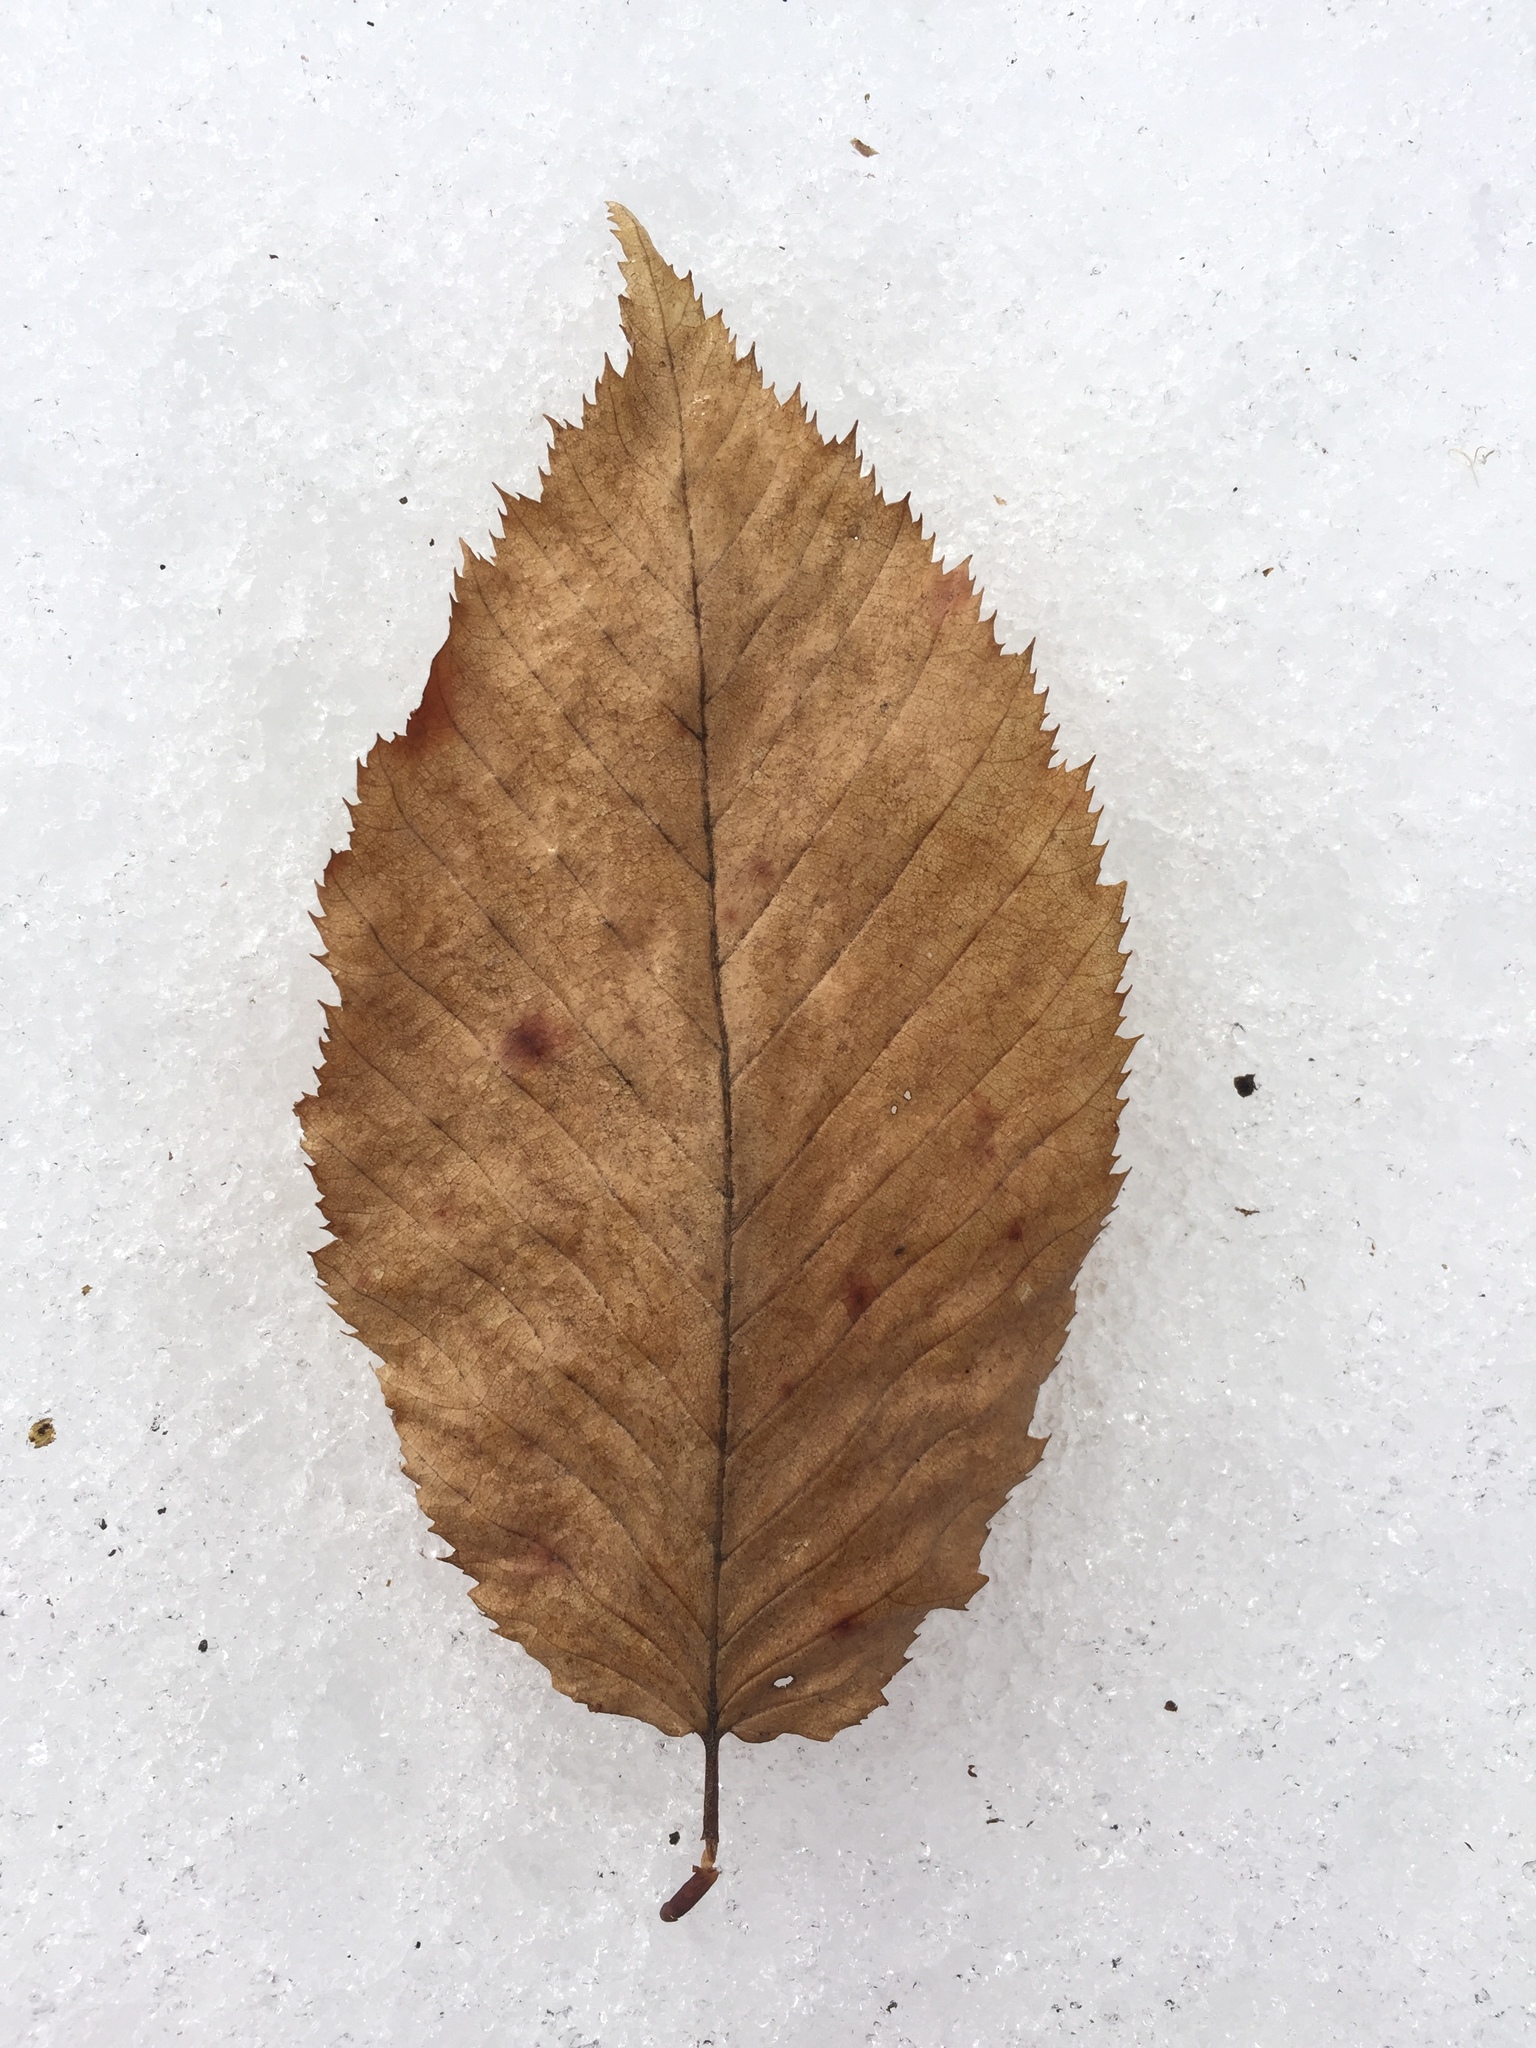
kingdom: Plantae
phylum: Tracheophyta
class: Magnoliopsida
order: Fagales
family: Betulaceae
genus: Carpinus
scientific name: Carpinus caroliniana
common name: American hornbeam
